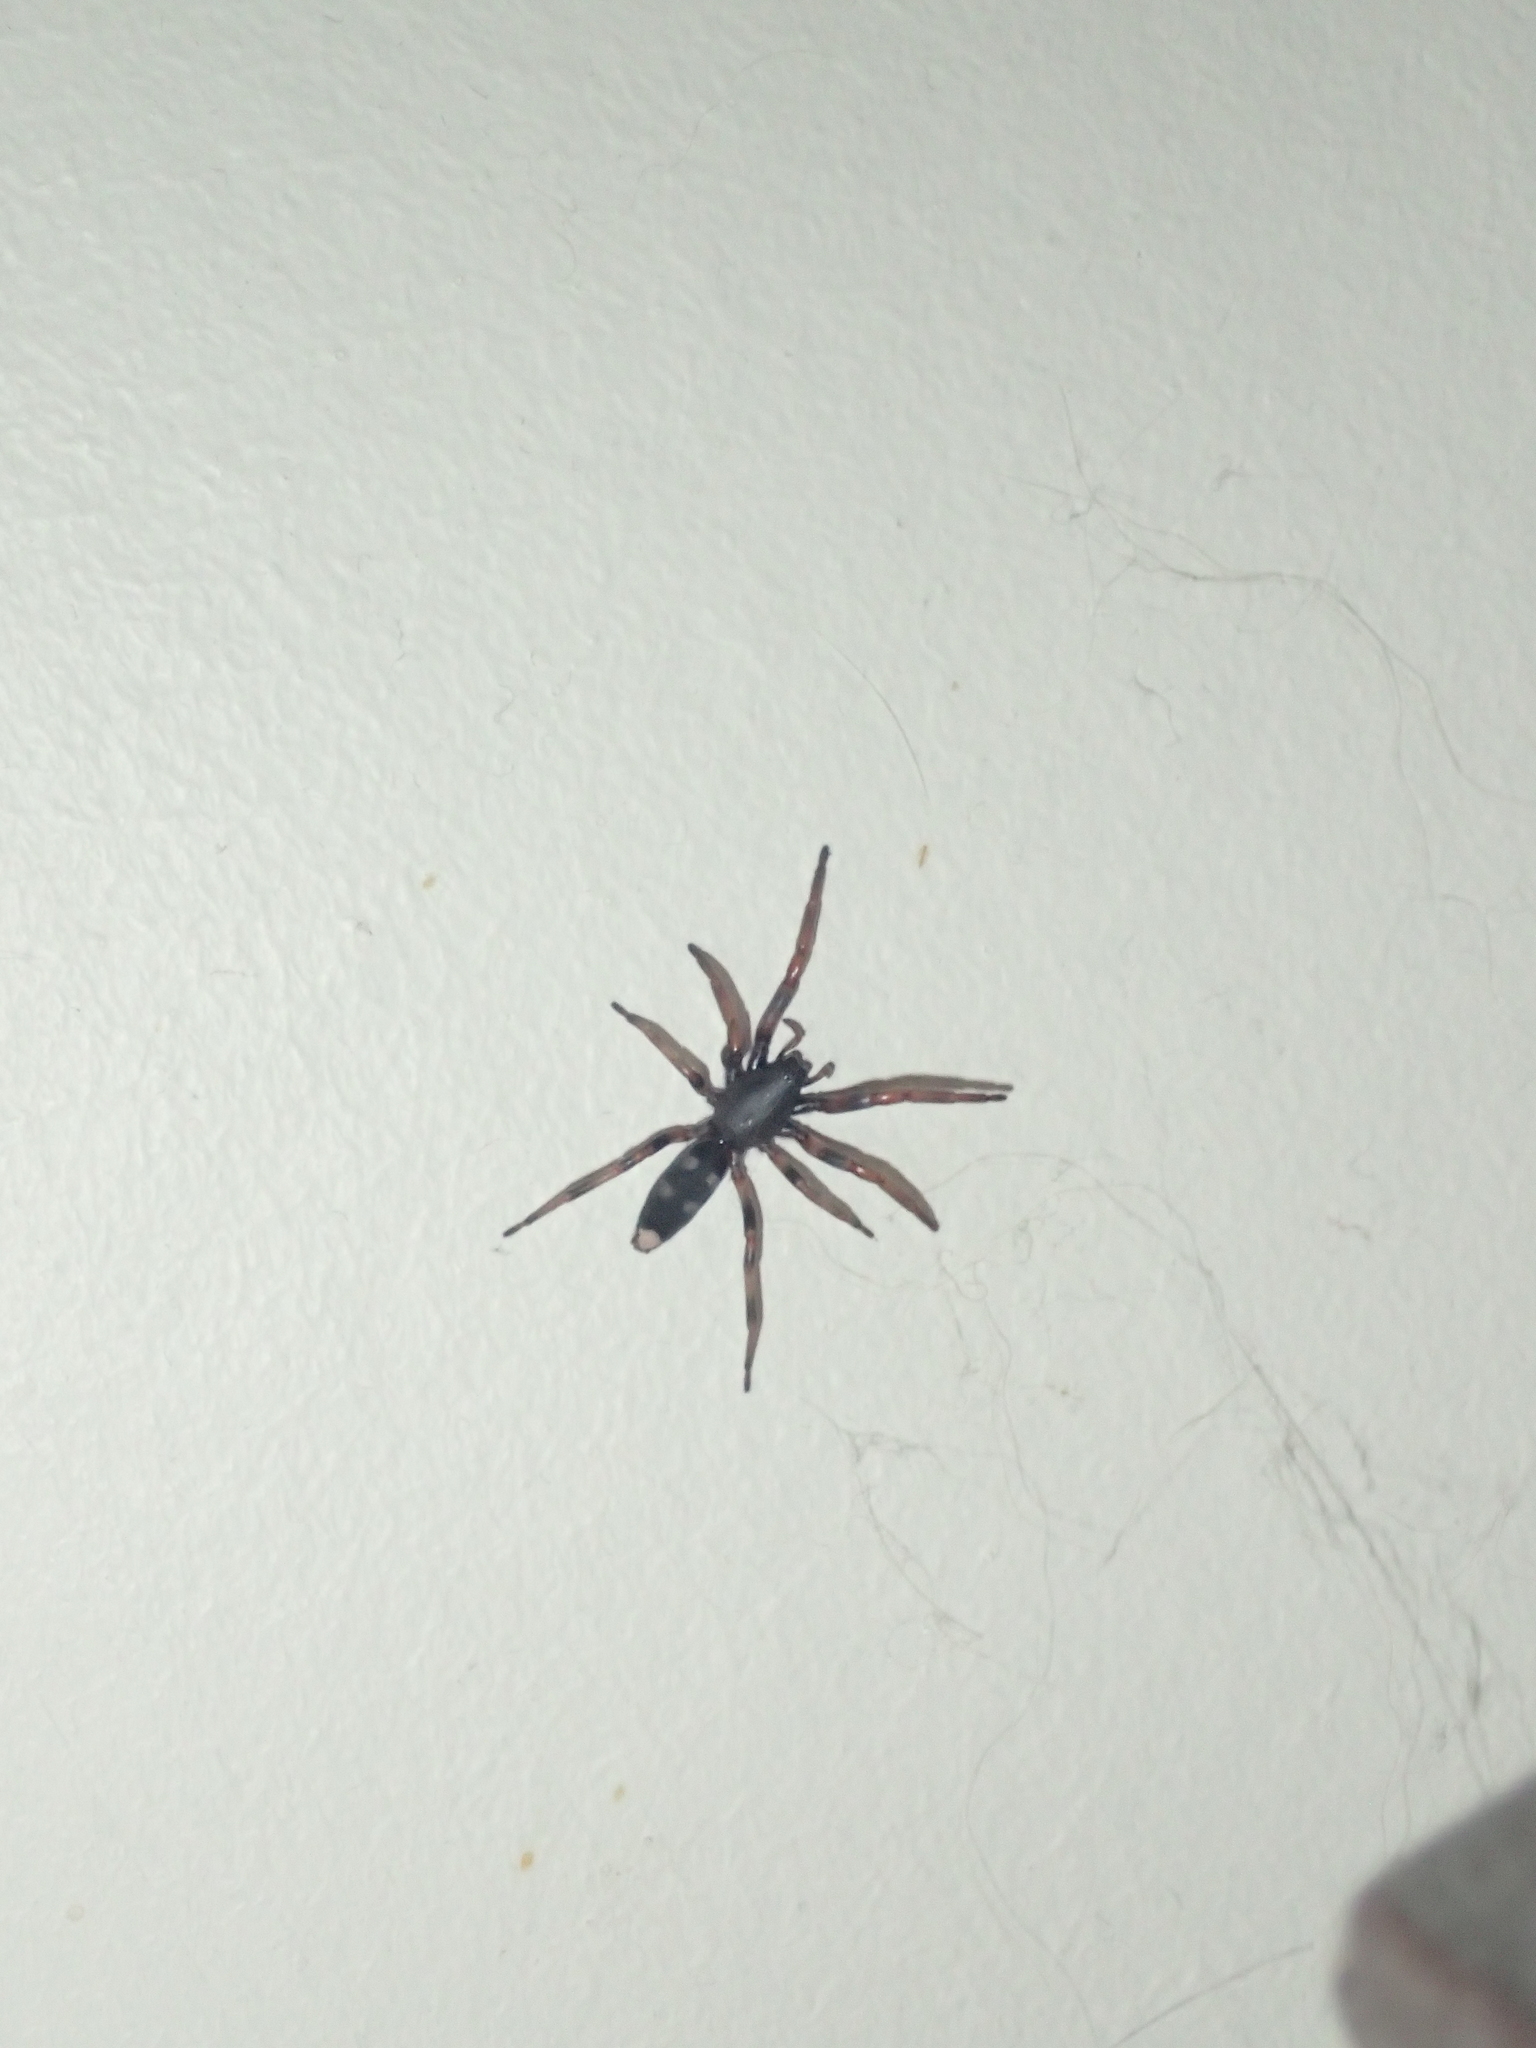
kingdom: Animalia
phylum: Arthropoda
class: Arachnida
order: Araneae
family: Lamponidae
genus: Lampona
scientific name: Lampona murina
